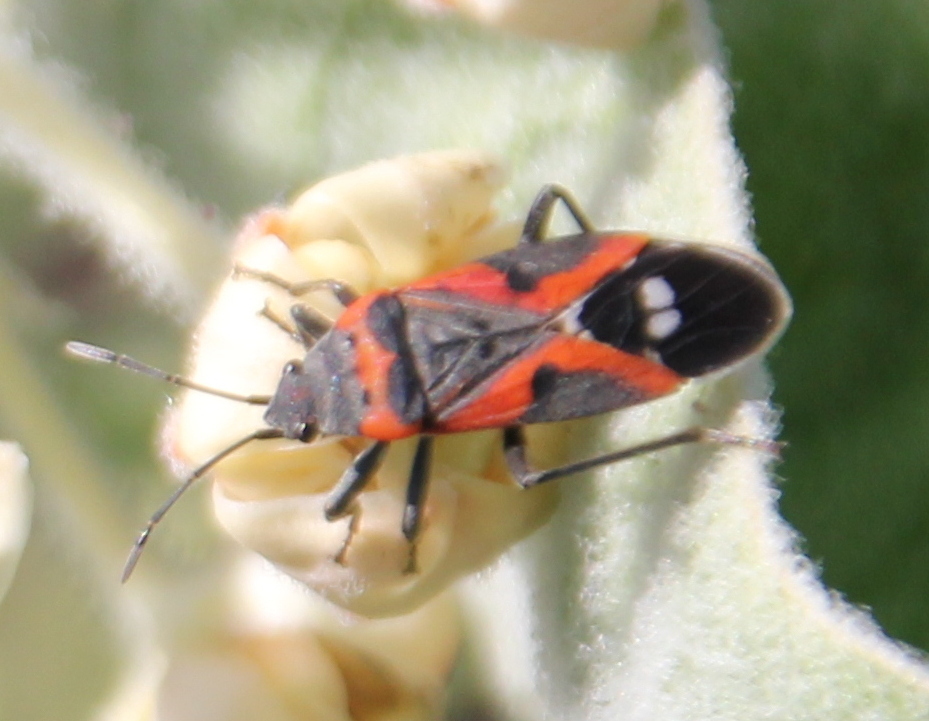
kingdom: Animalia
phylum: Arthropoda
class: Insecta
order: Hemiptera
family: Lygaeidae
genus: Lygaeus
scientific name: Lygaeus kalmii
